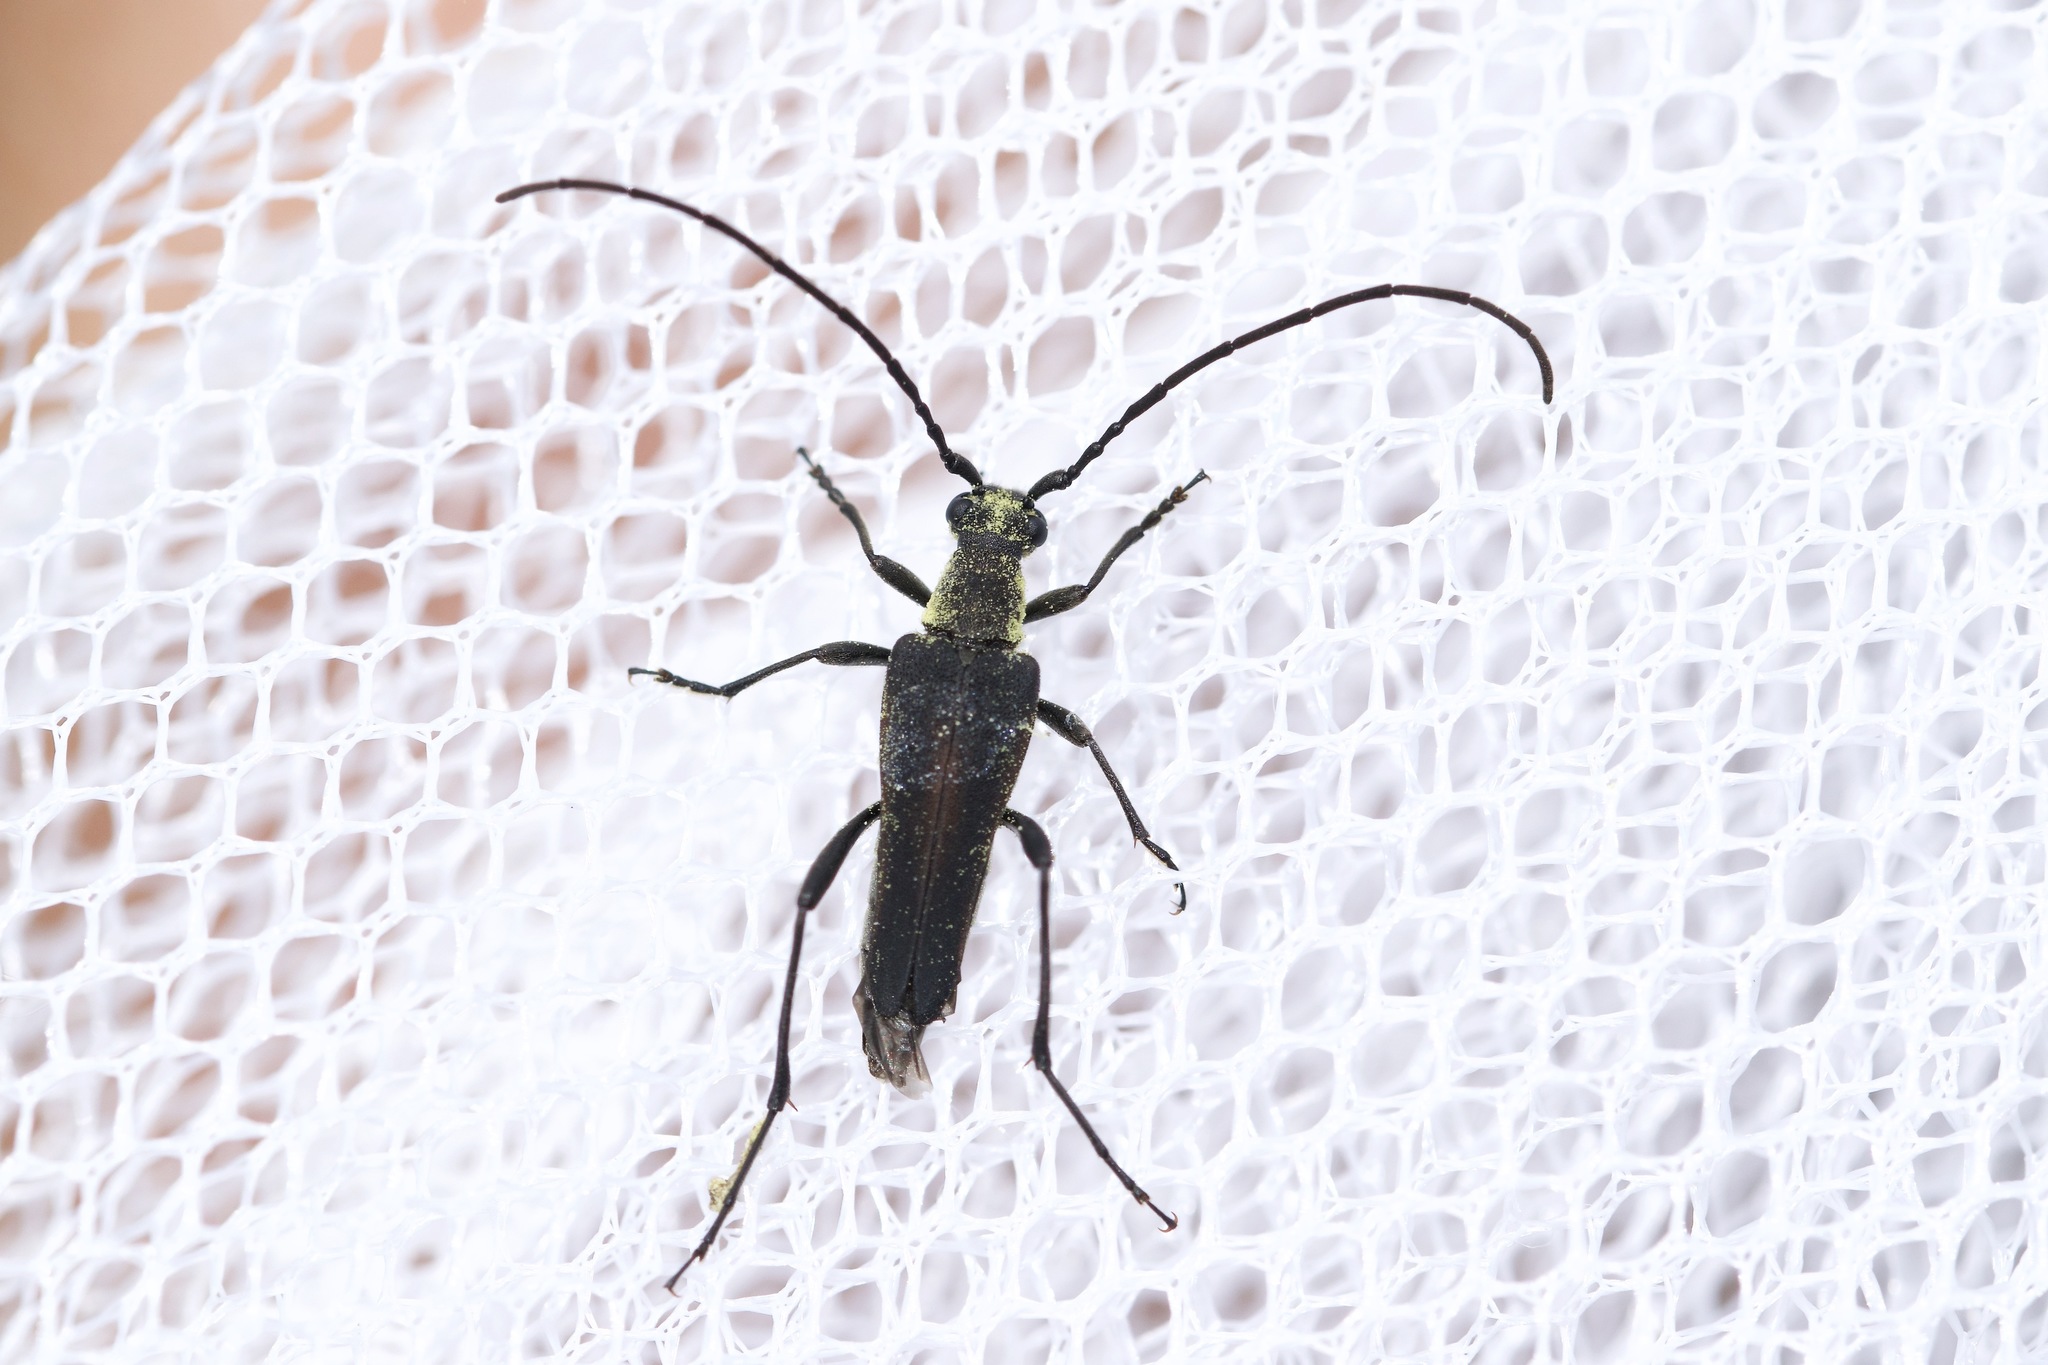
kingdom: Animalia
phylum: Arthropoda
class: Insecta
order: Coleoptera
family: Cerambycidae
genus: Trachysida
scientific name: Trachysida mutabilis
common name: Changeable flower longhorn
